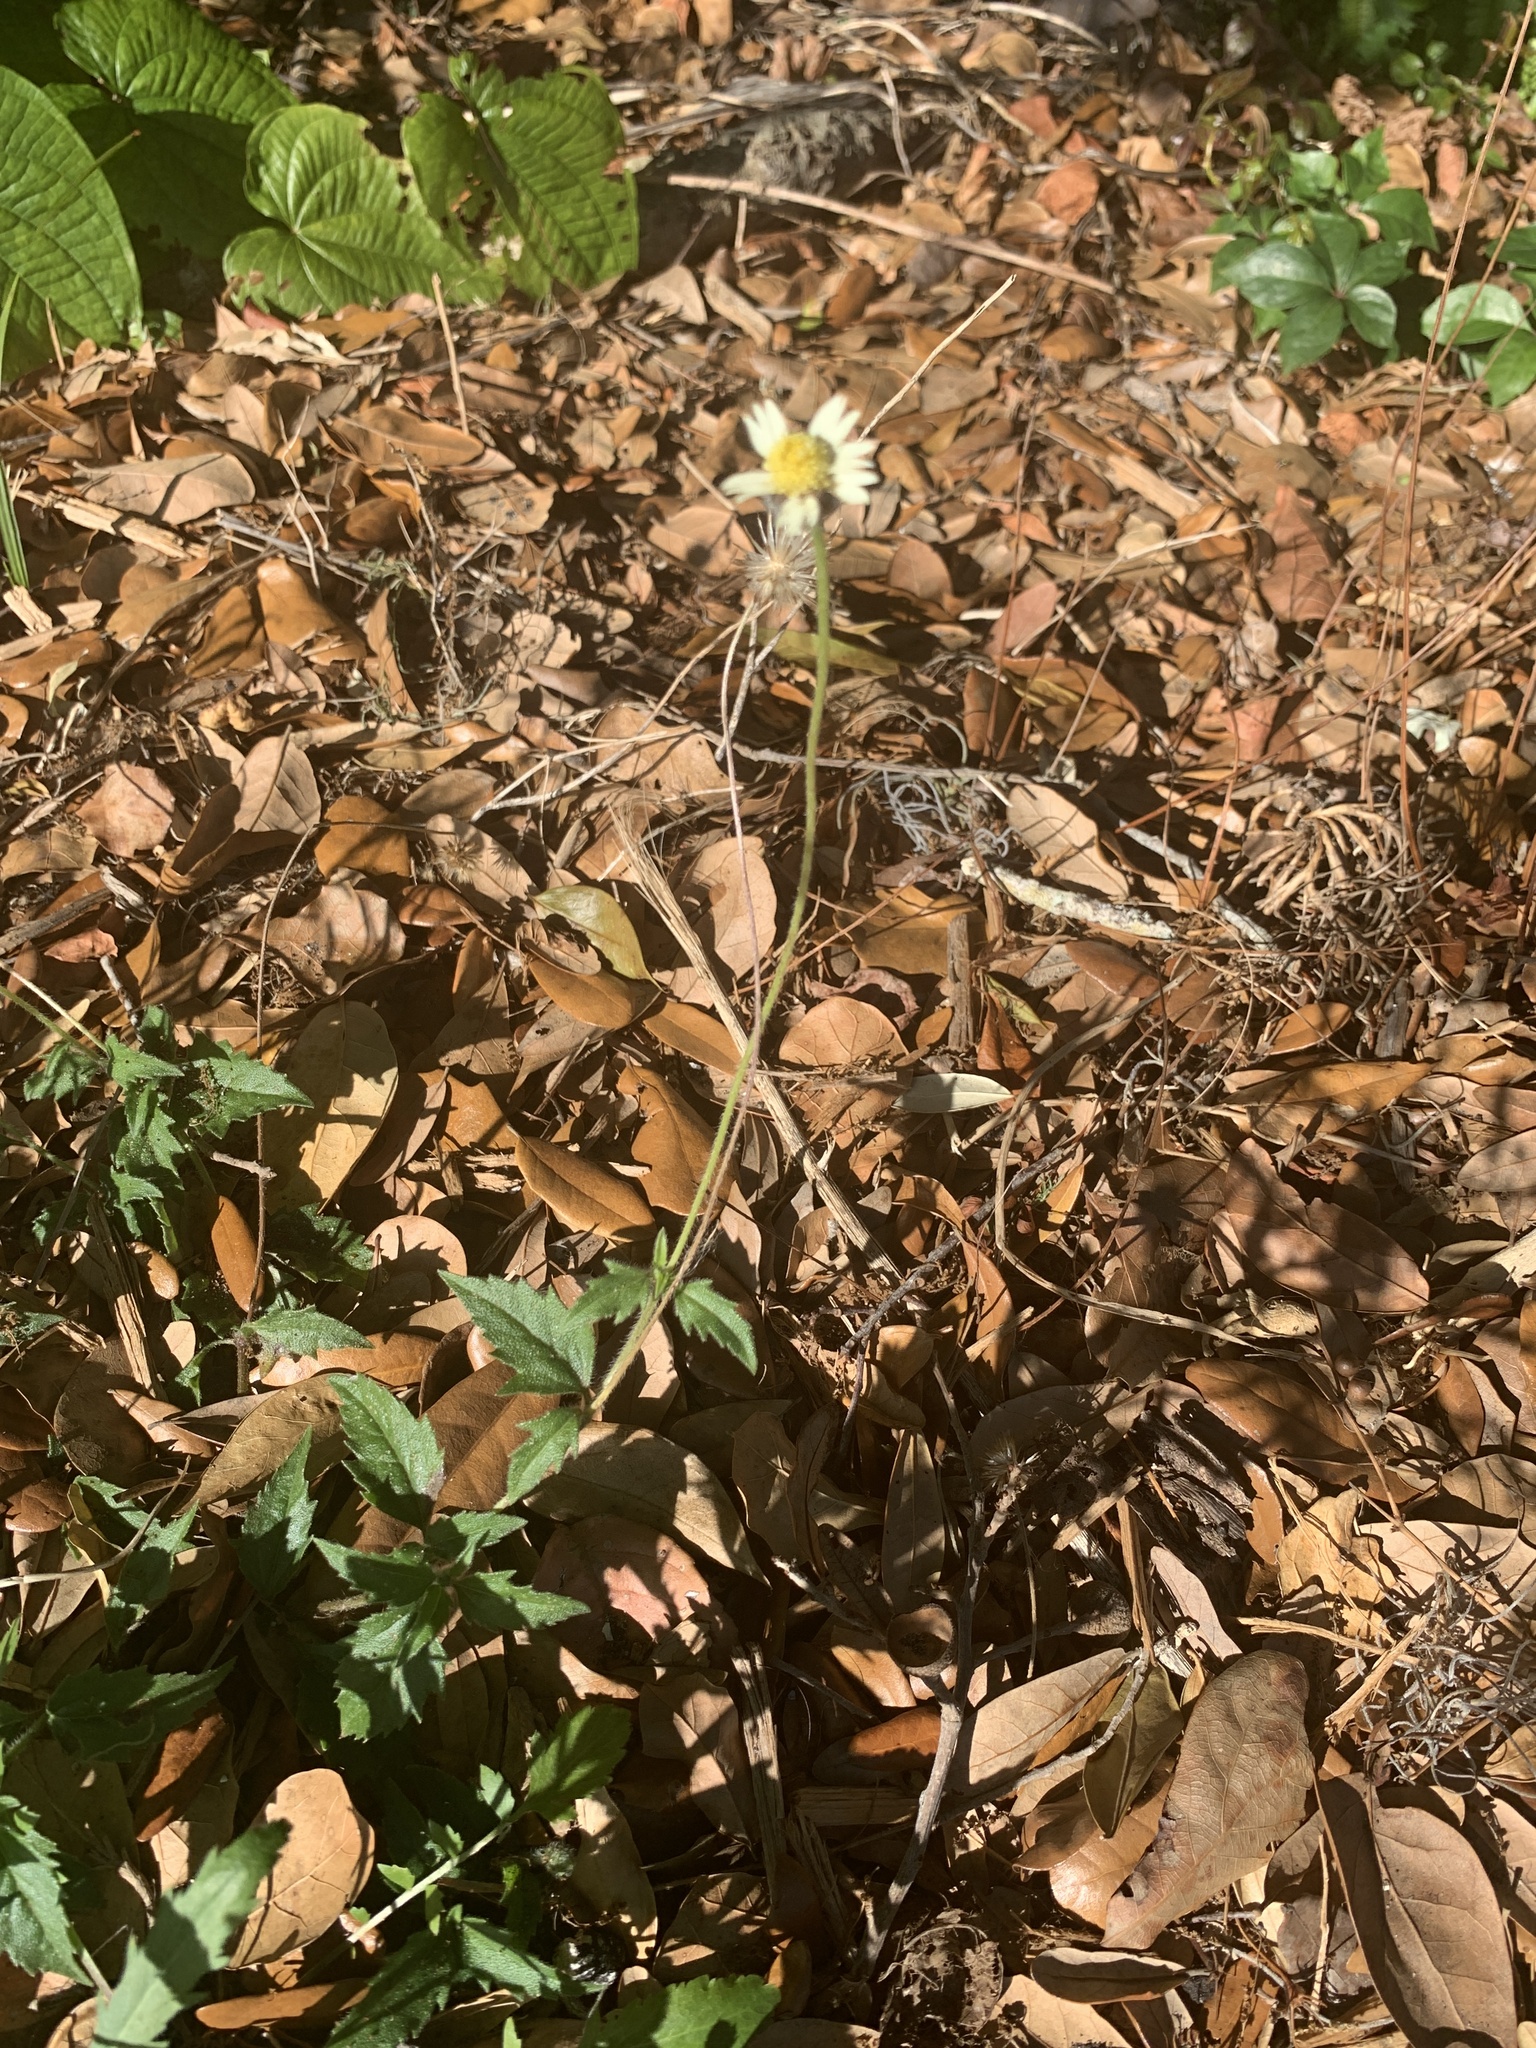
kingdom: Plantae
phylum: Tracheophyta
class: Magnoliopsida
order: Asterales
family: Asteraceae
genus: Tridax
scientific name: Tridax procumbens
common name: Coatbuttons
